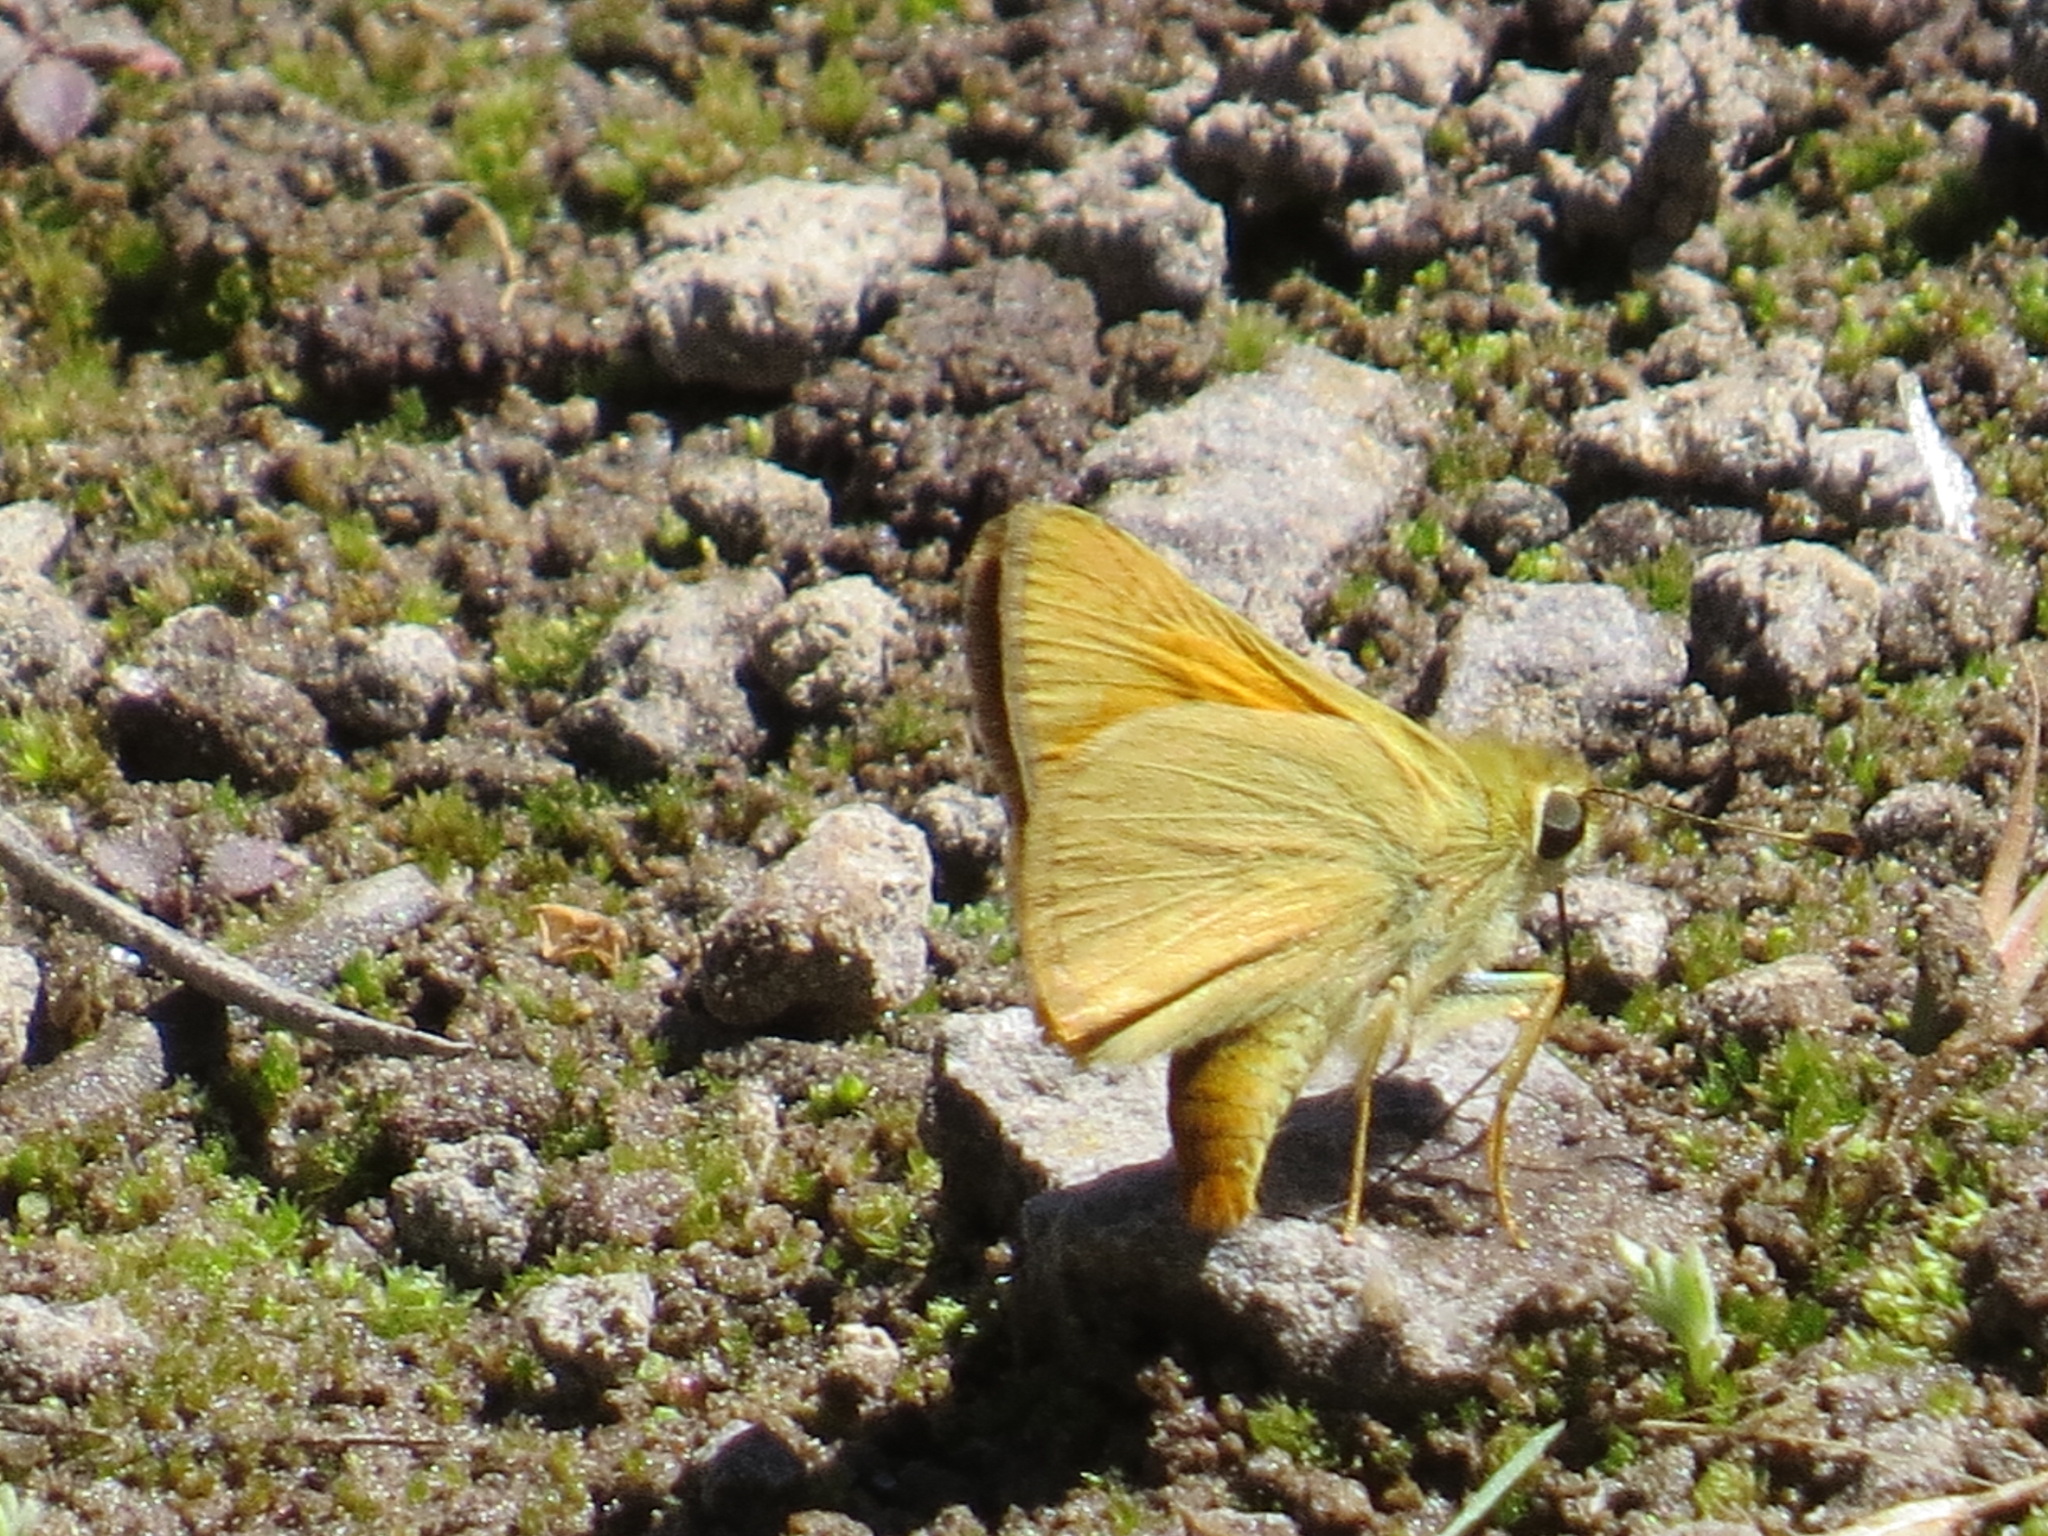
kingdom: Animalia
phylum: Arthropoda
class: Insecta
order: Lepidoptera
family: Hesperiidae
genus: Ochlodes
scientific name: Ochlodes sylvanoides
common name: Woodland skipper
